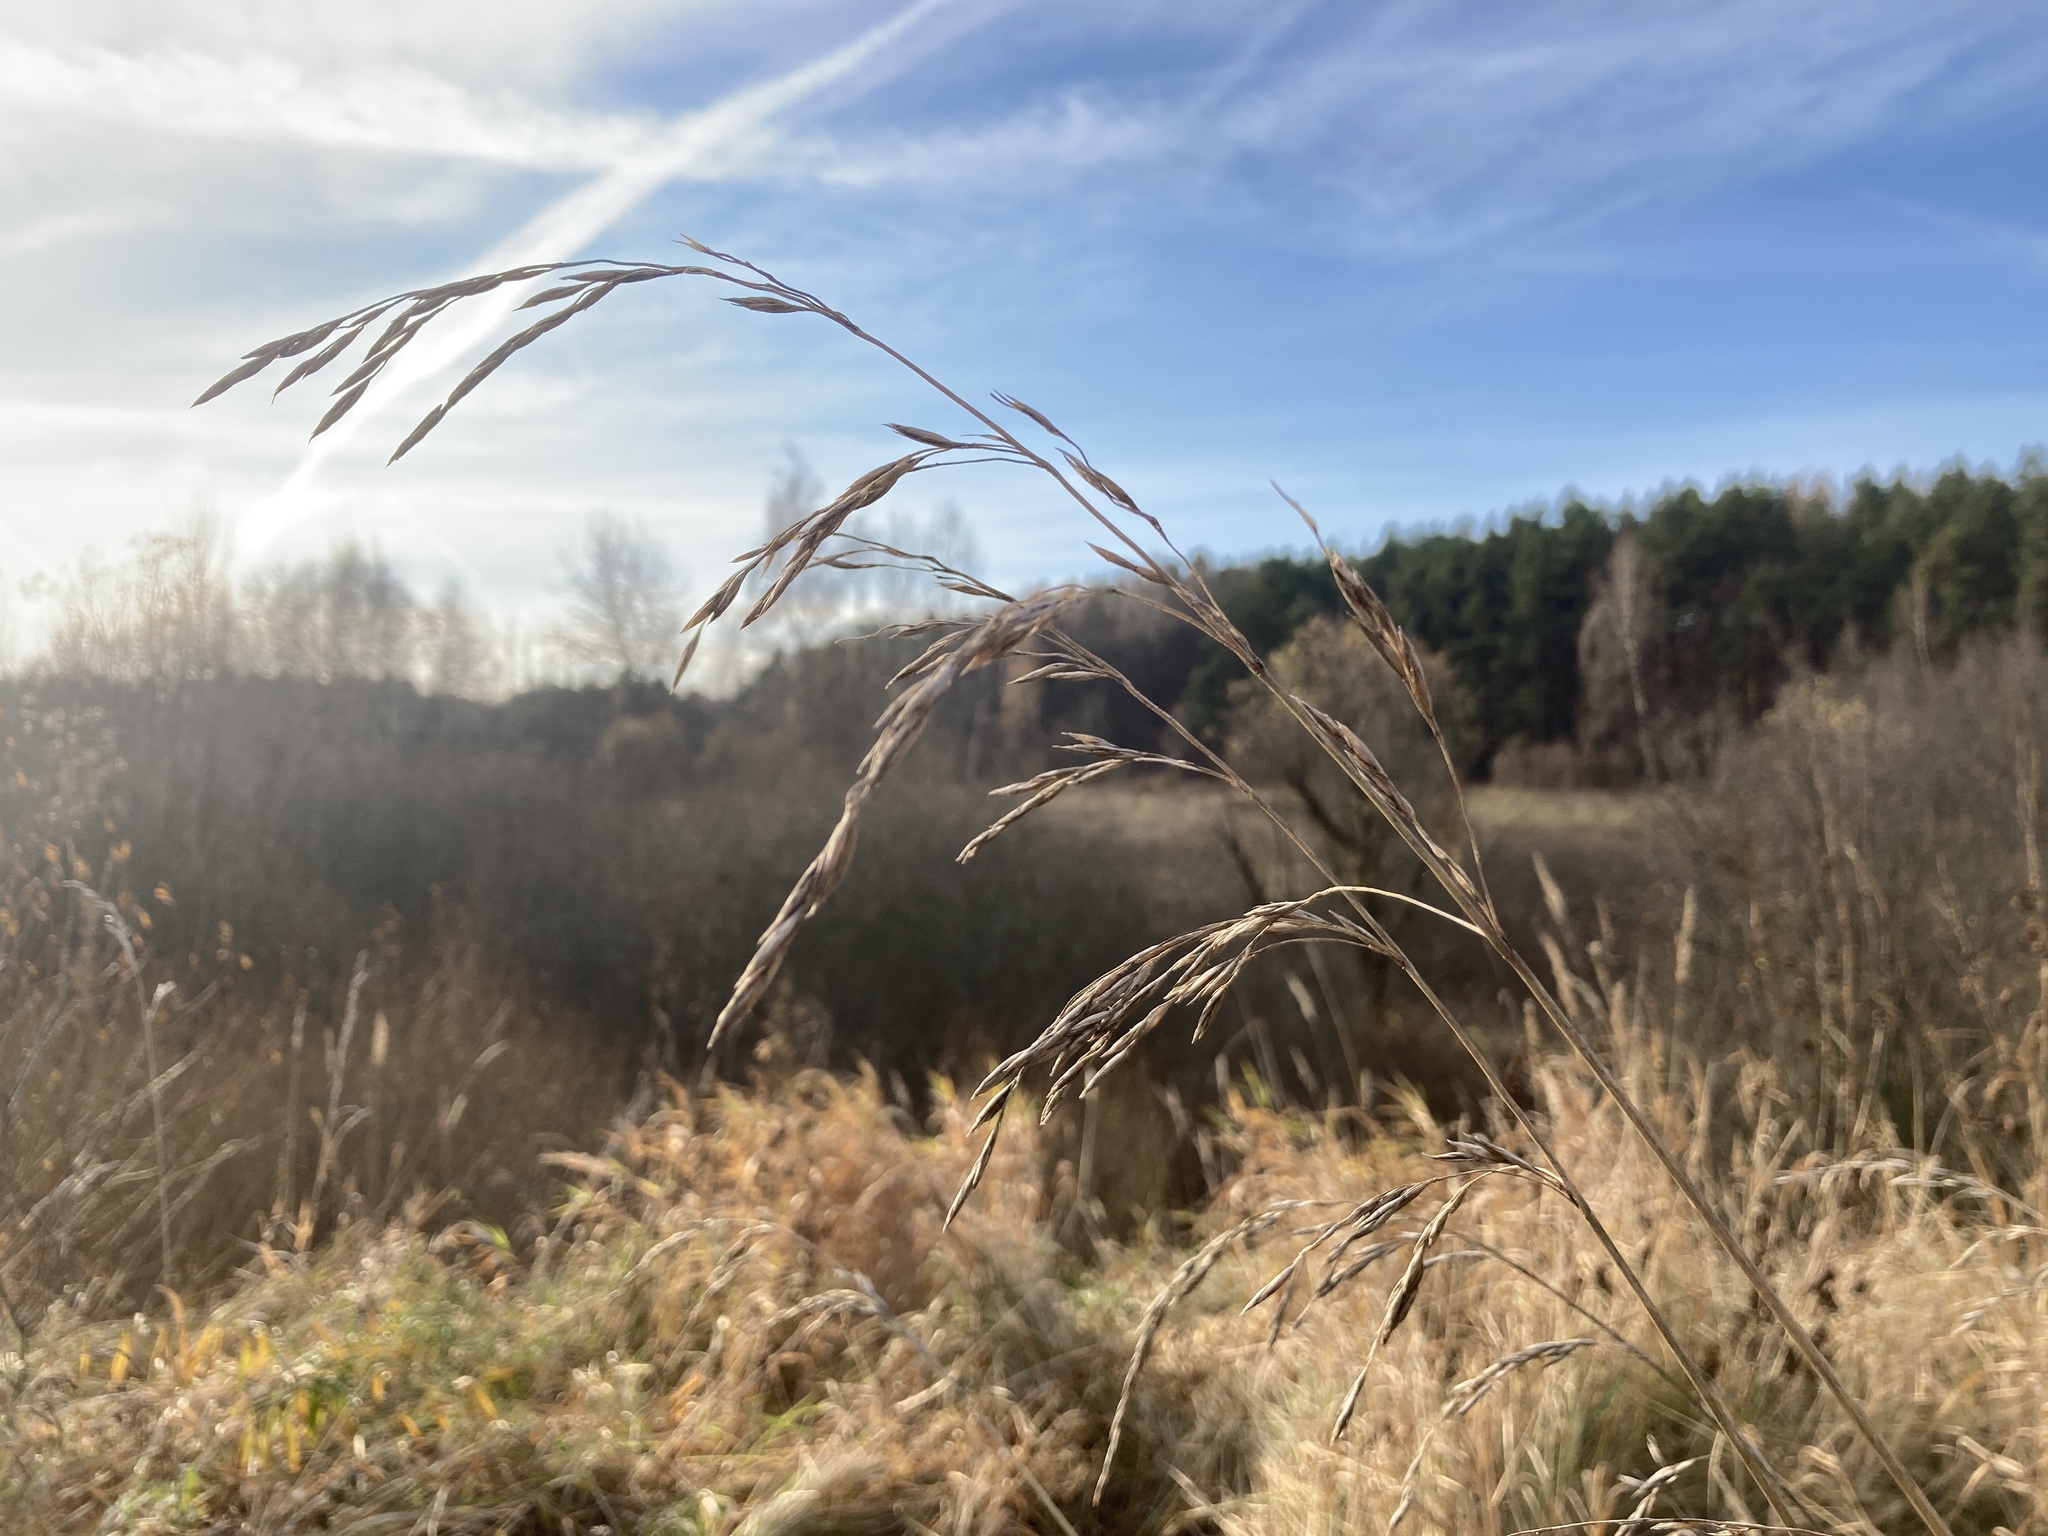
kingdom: Plantae
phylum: Tracheophyta
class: Liliopsida
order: Poales
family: Poaceae
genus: Lolium
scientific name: Lolium arundinaceum
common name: Reed fescue
